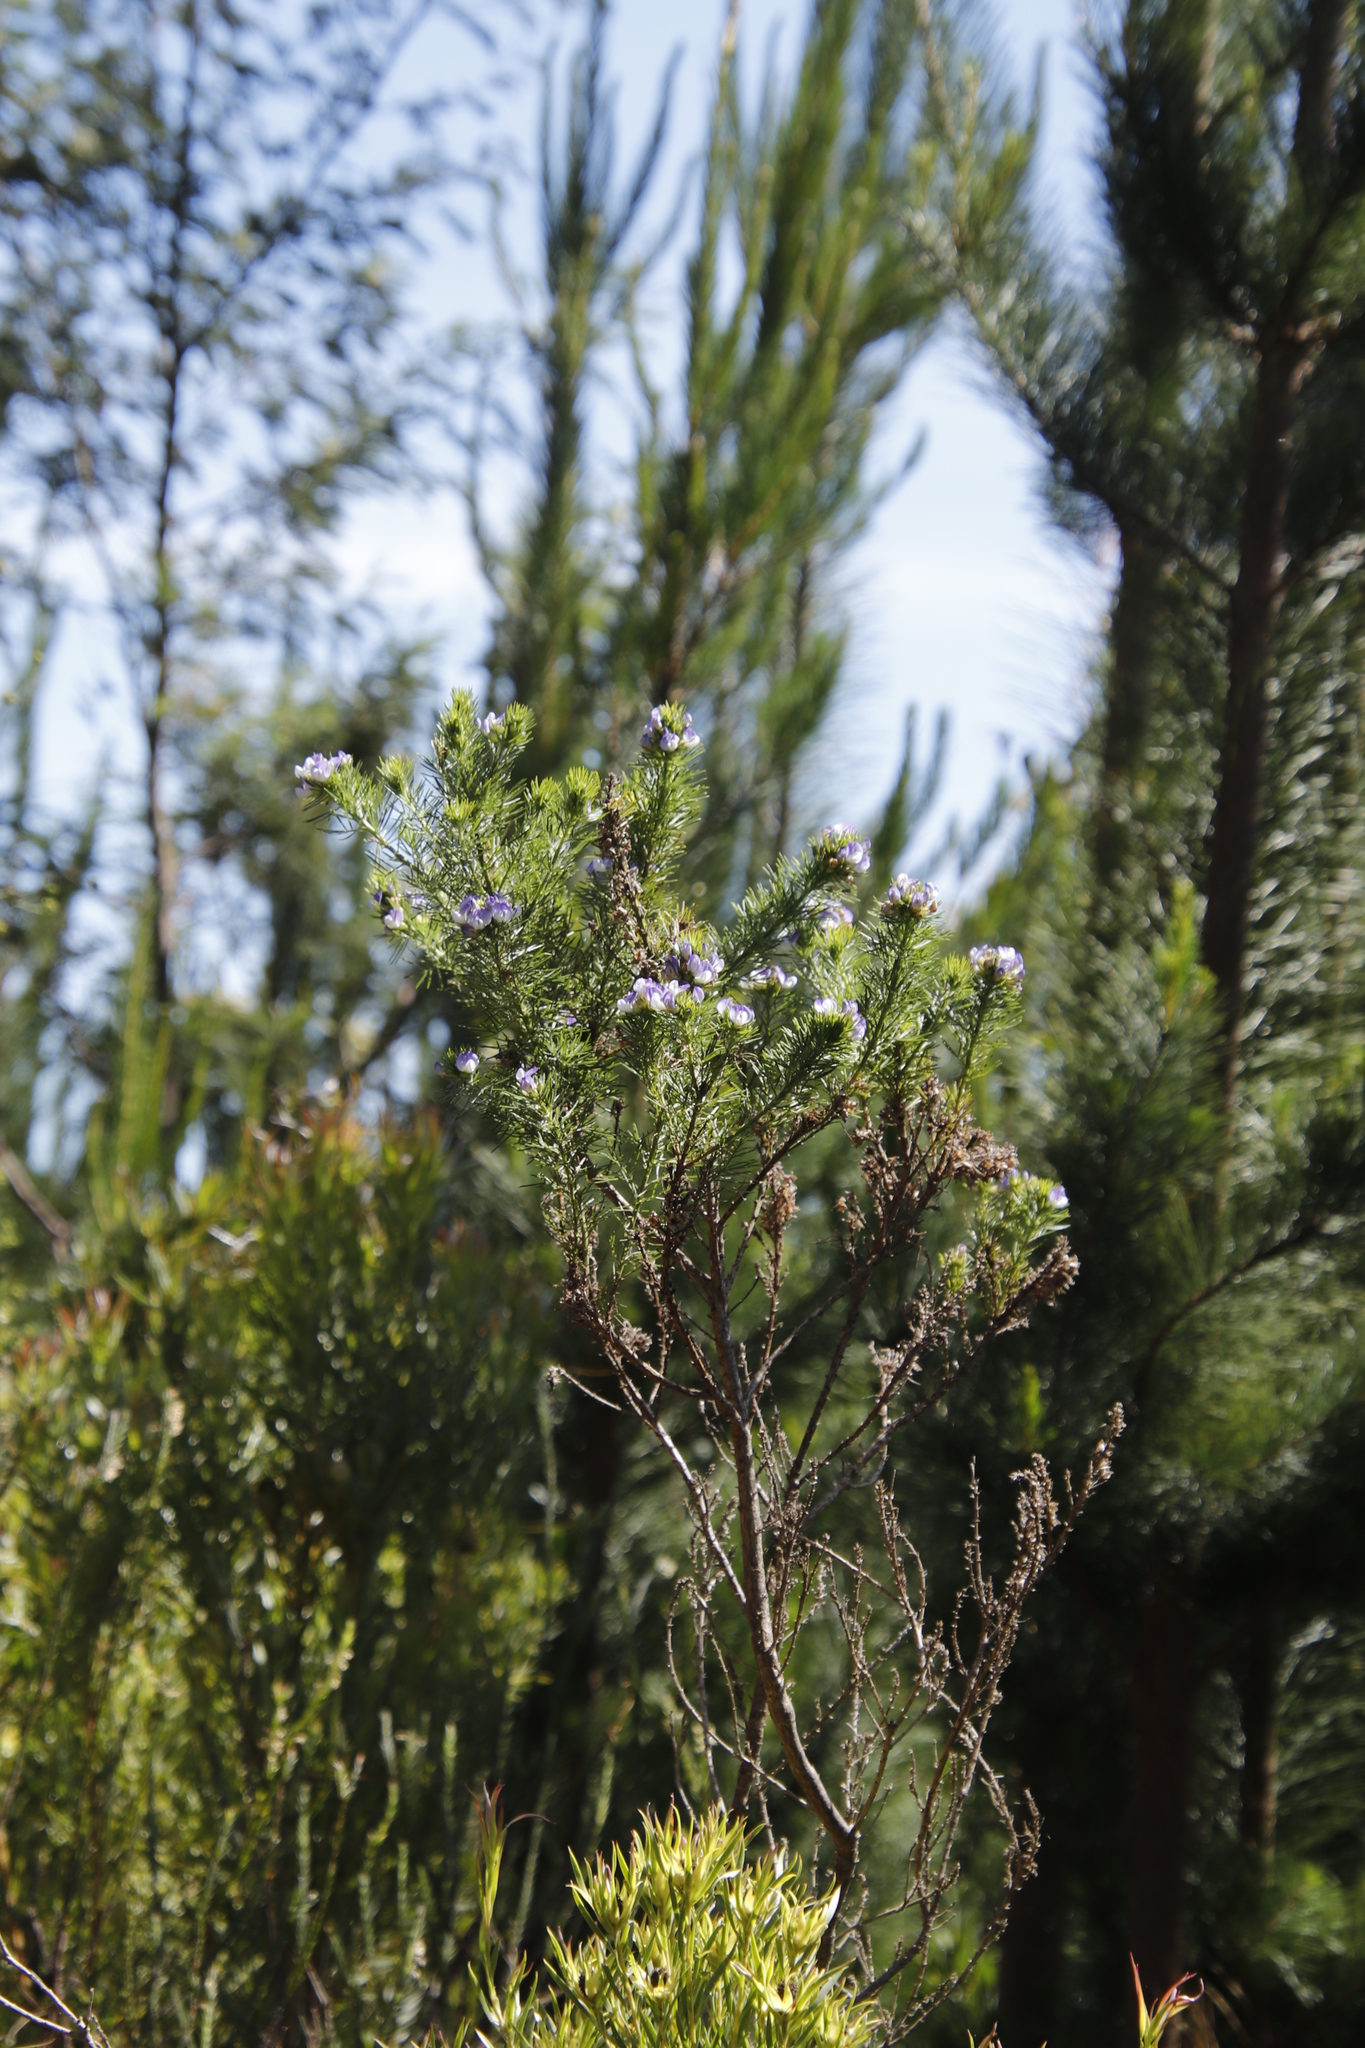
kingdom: Plantae
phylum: Tracheophyta
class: Magnoliopsida
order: Fabales
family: Fabaceae
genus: Psoralea
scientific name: Psoralea pinnata
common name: African scurfpea
